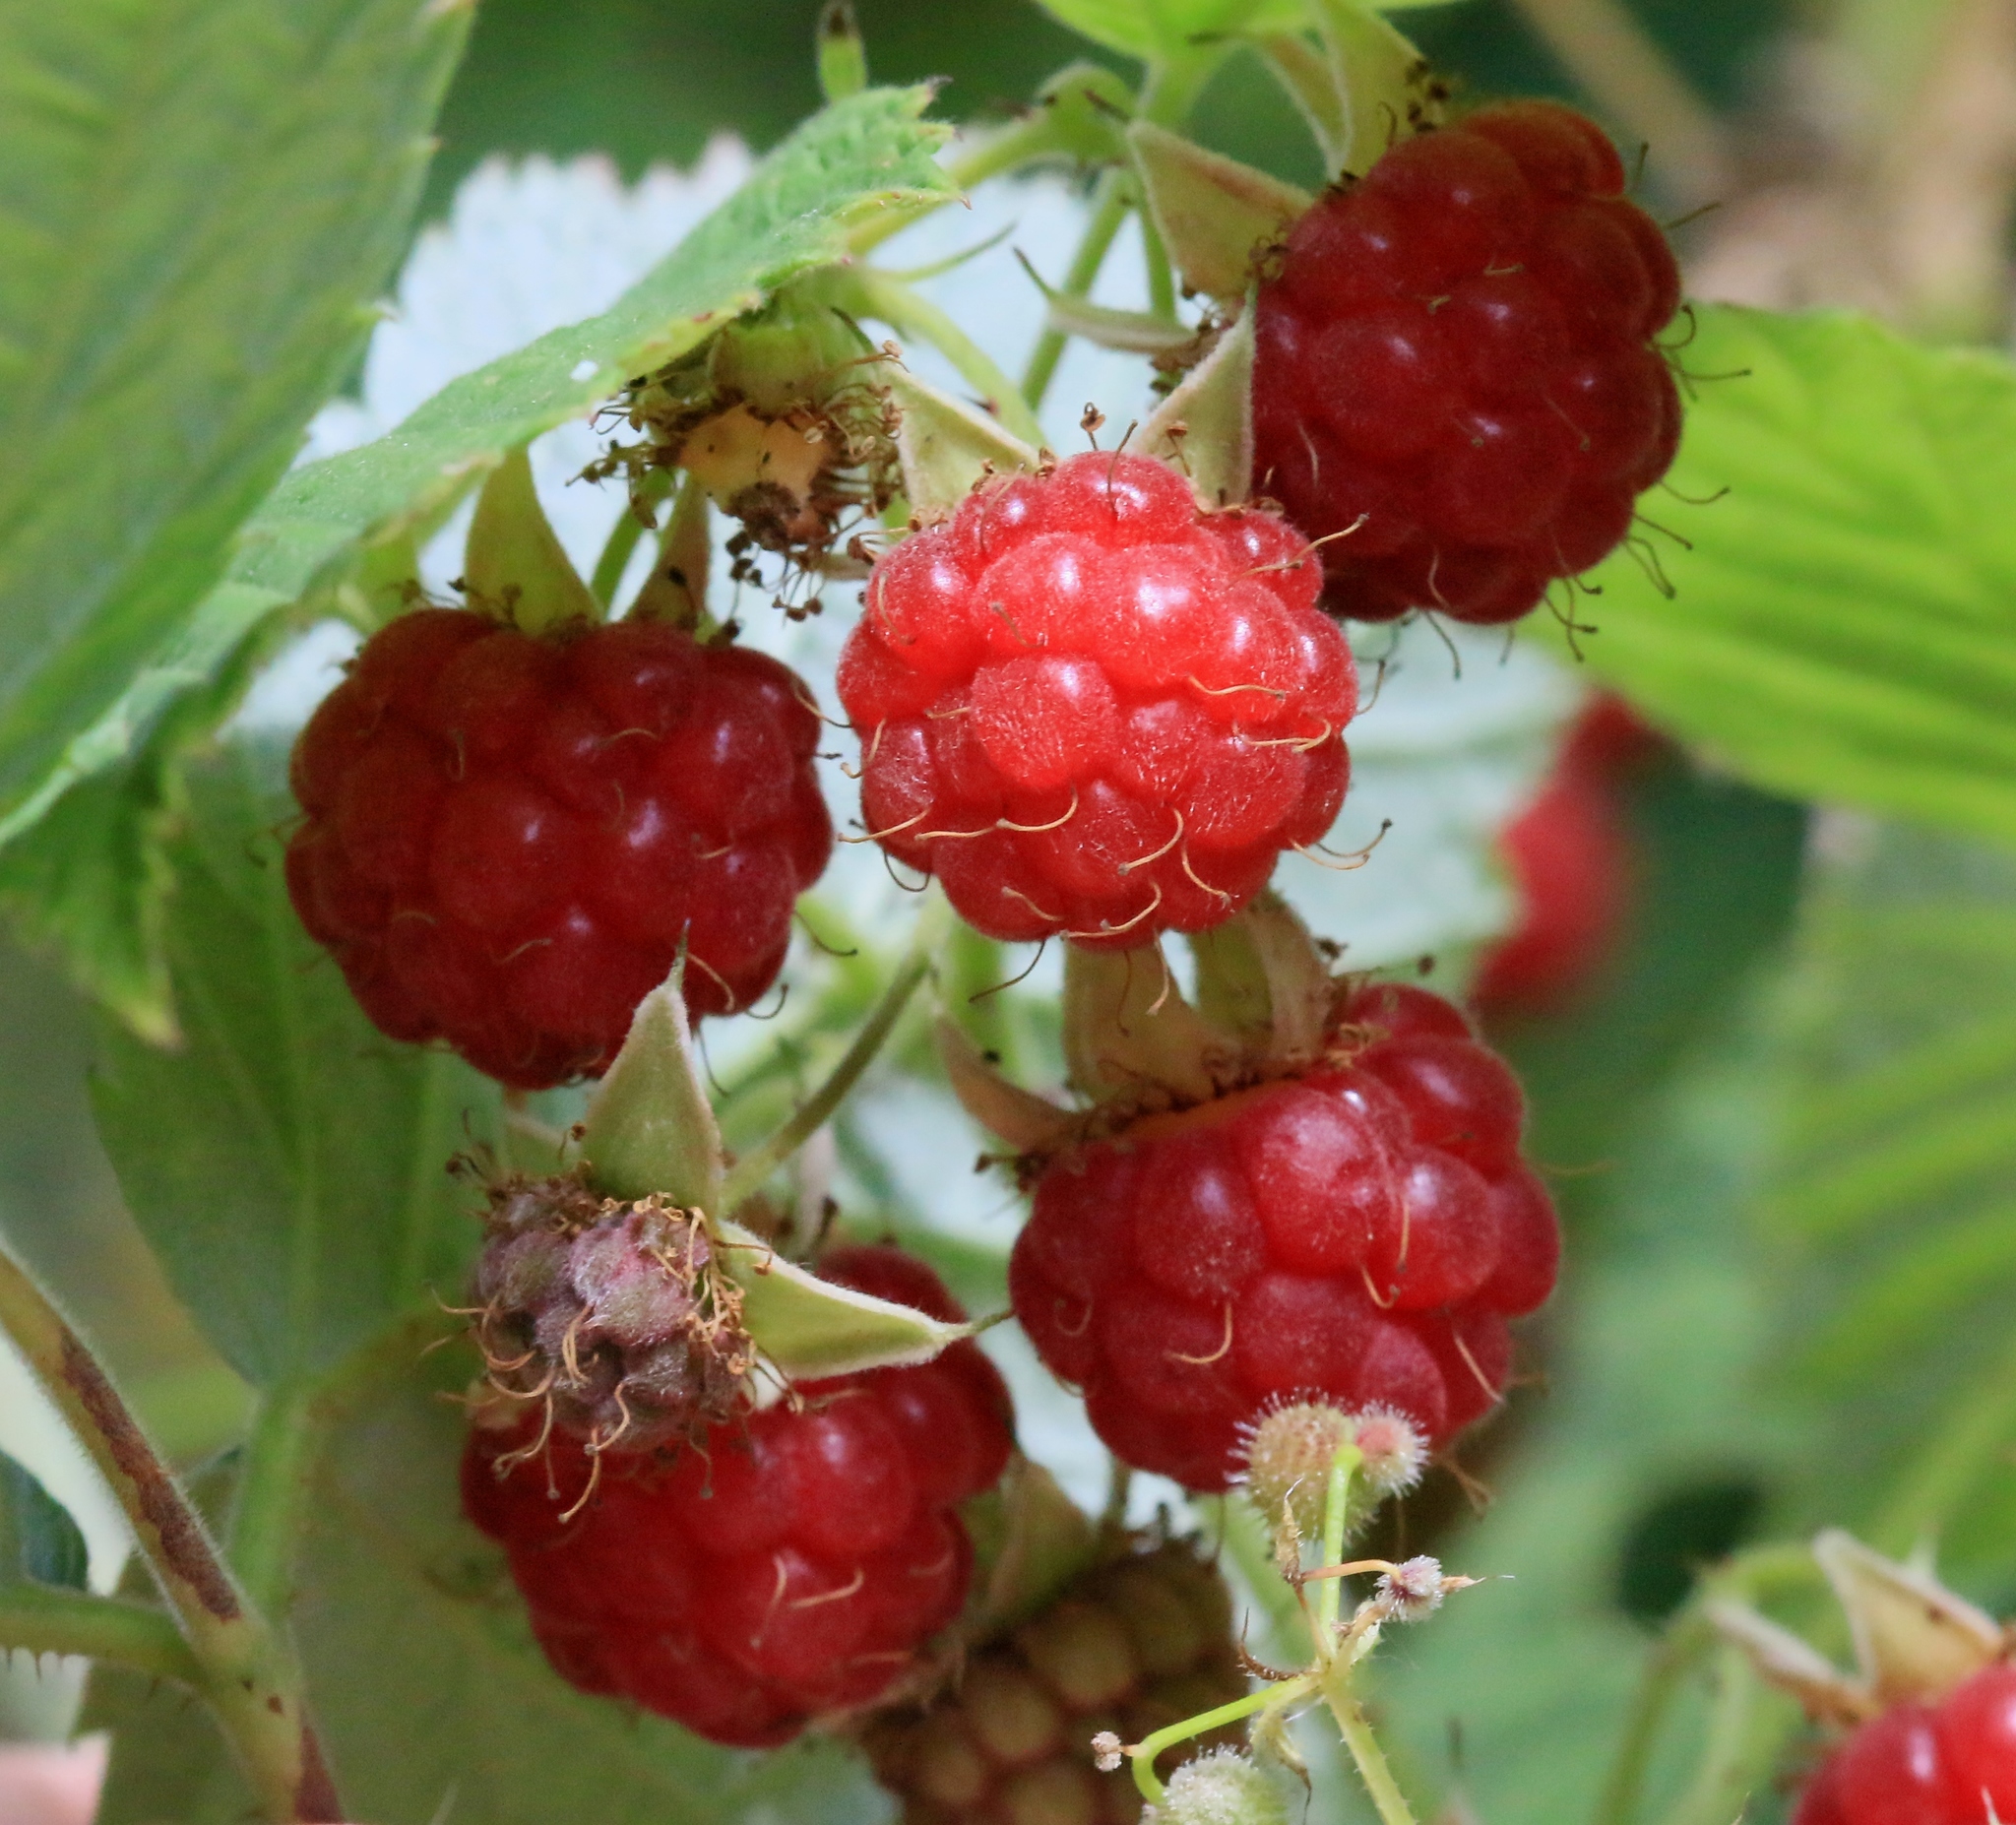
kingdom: Plantae
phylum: Tracheophyta
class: Magnoliopsida
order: Rosales
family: Rosaceae
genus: Rubus
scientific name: Rubus idaeus
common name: Raspberry
